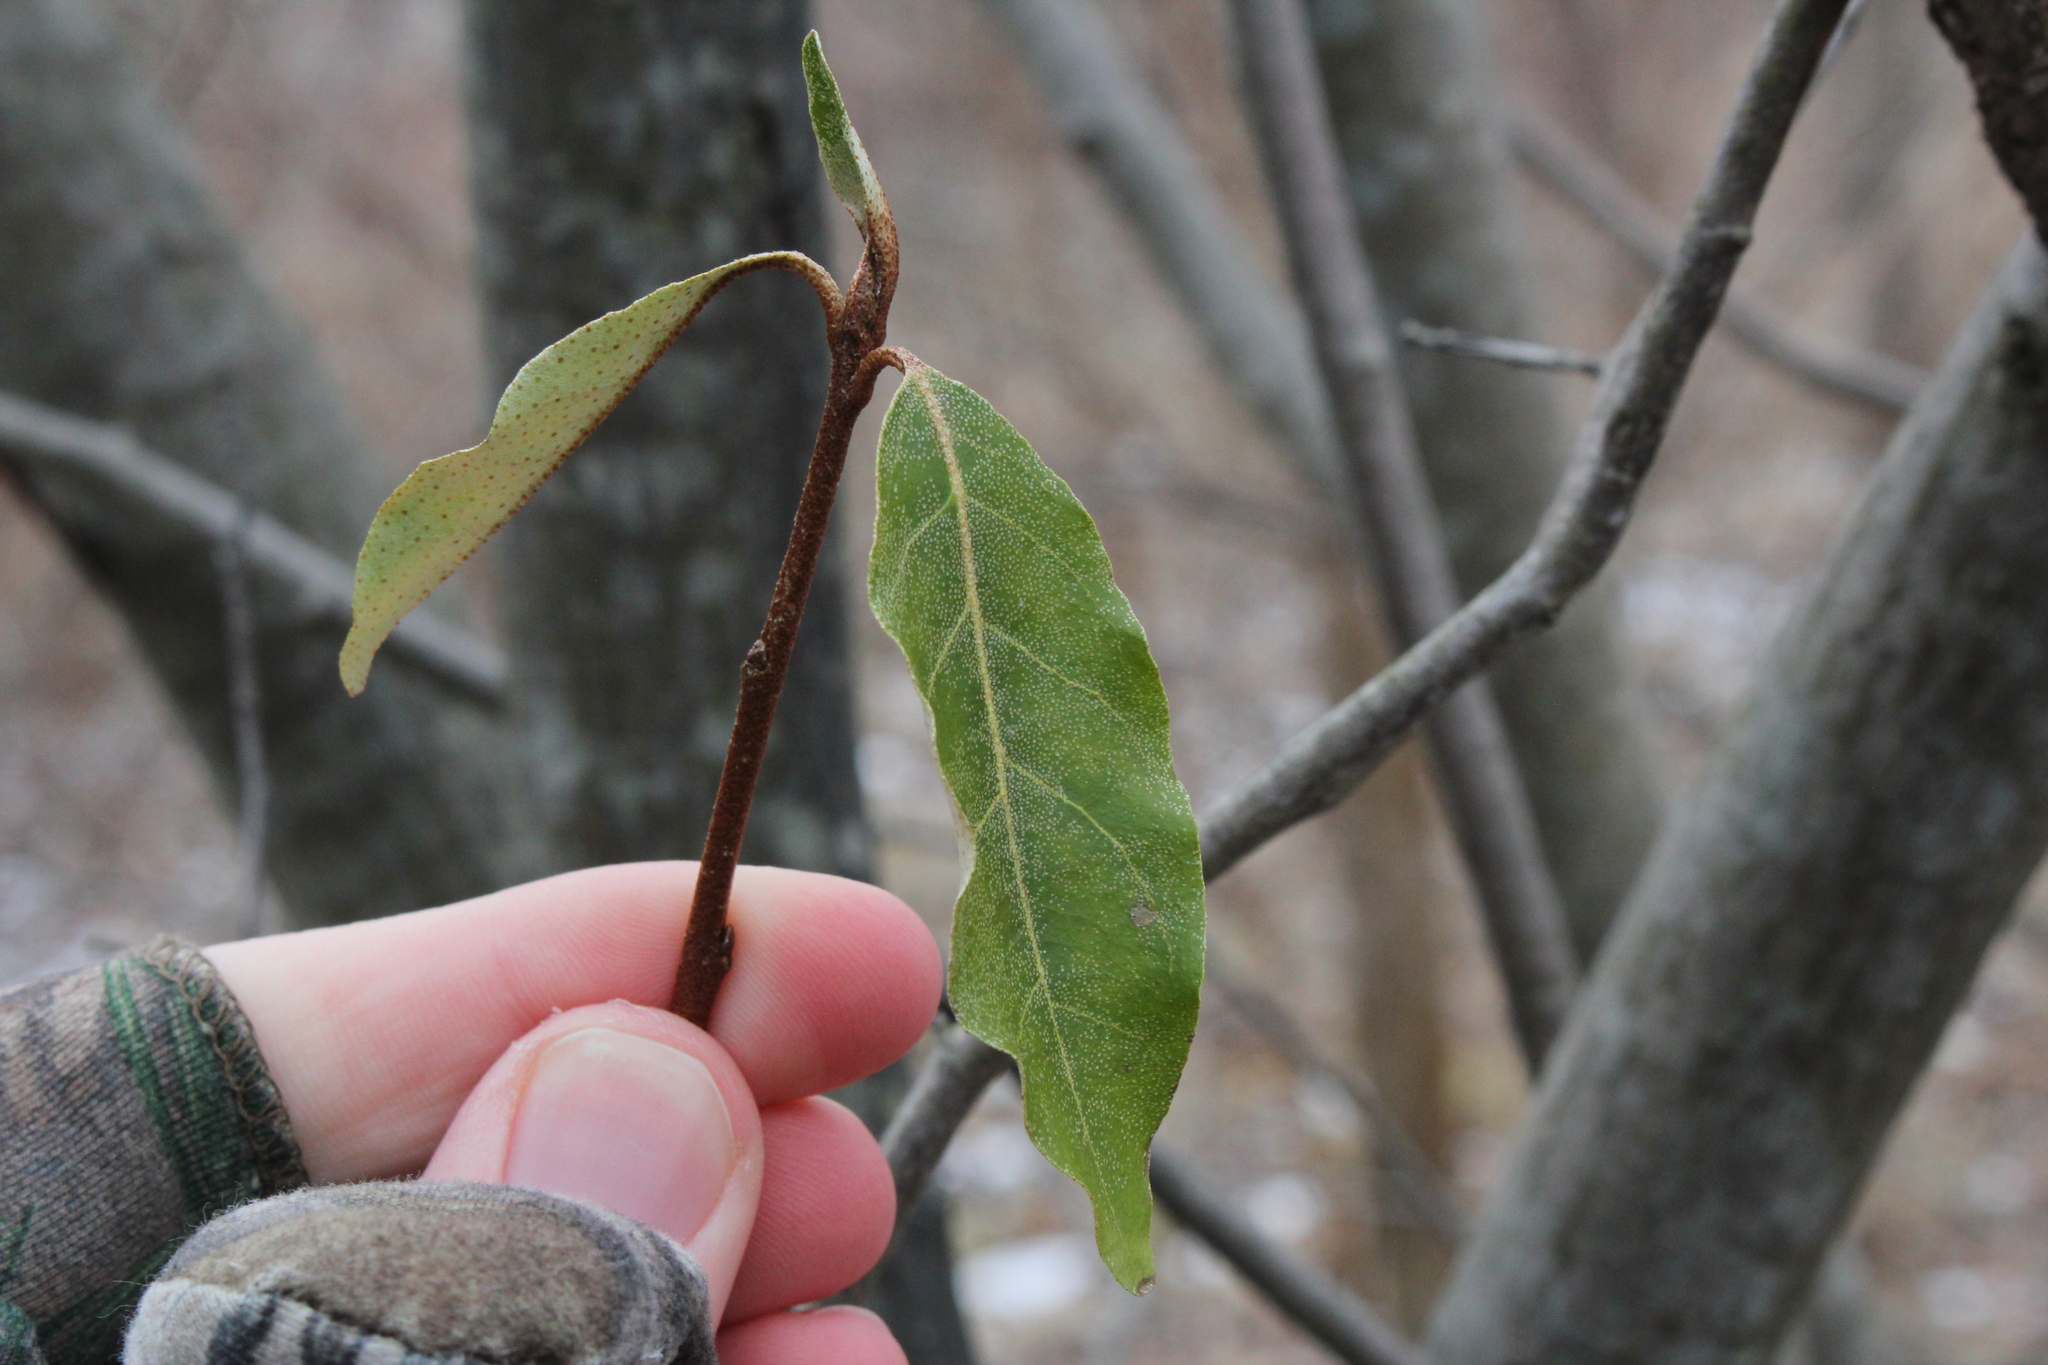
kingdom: Plantae
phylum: Tracheophyta
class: Magnoliopsida
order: Rosales
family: Elaeagnaceae
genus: Elaeagnus
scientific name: Elaeagnus umbellata
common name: Autumn olive
